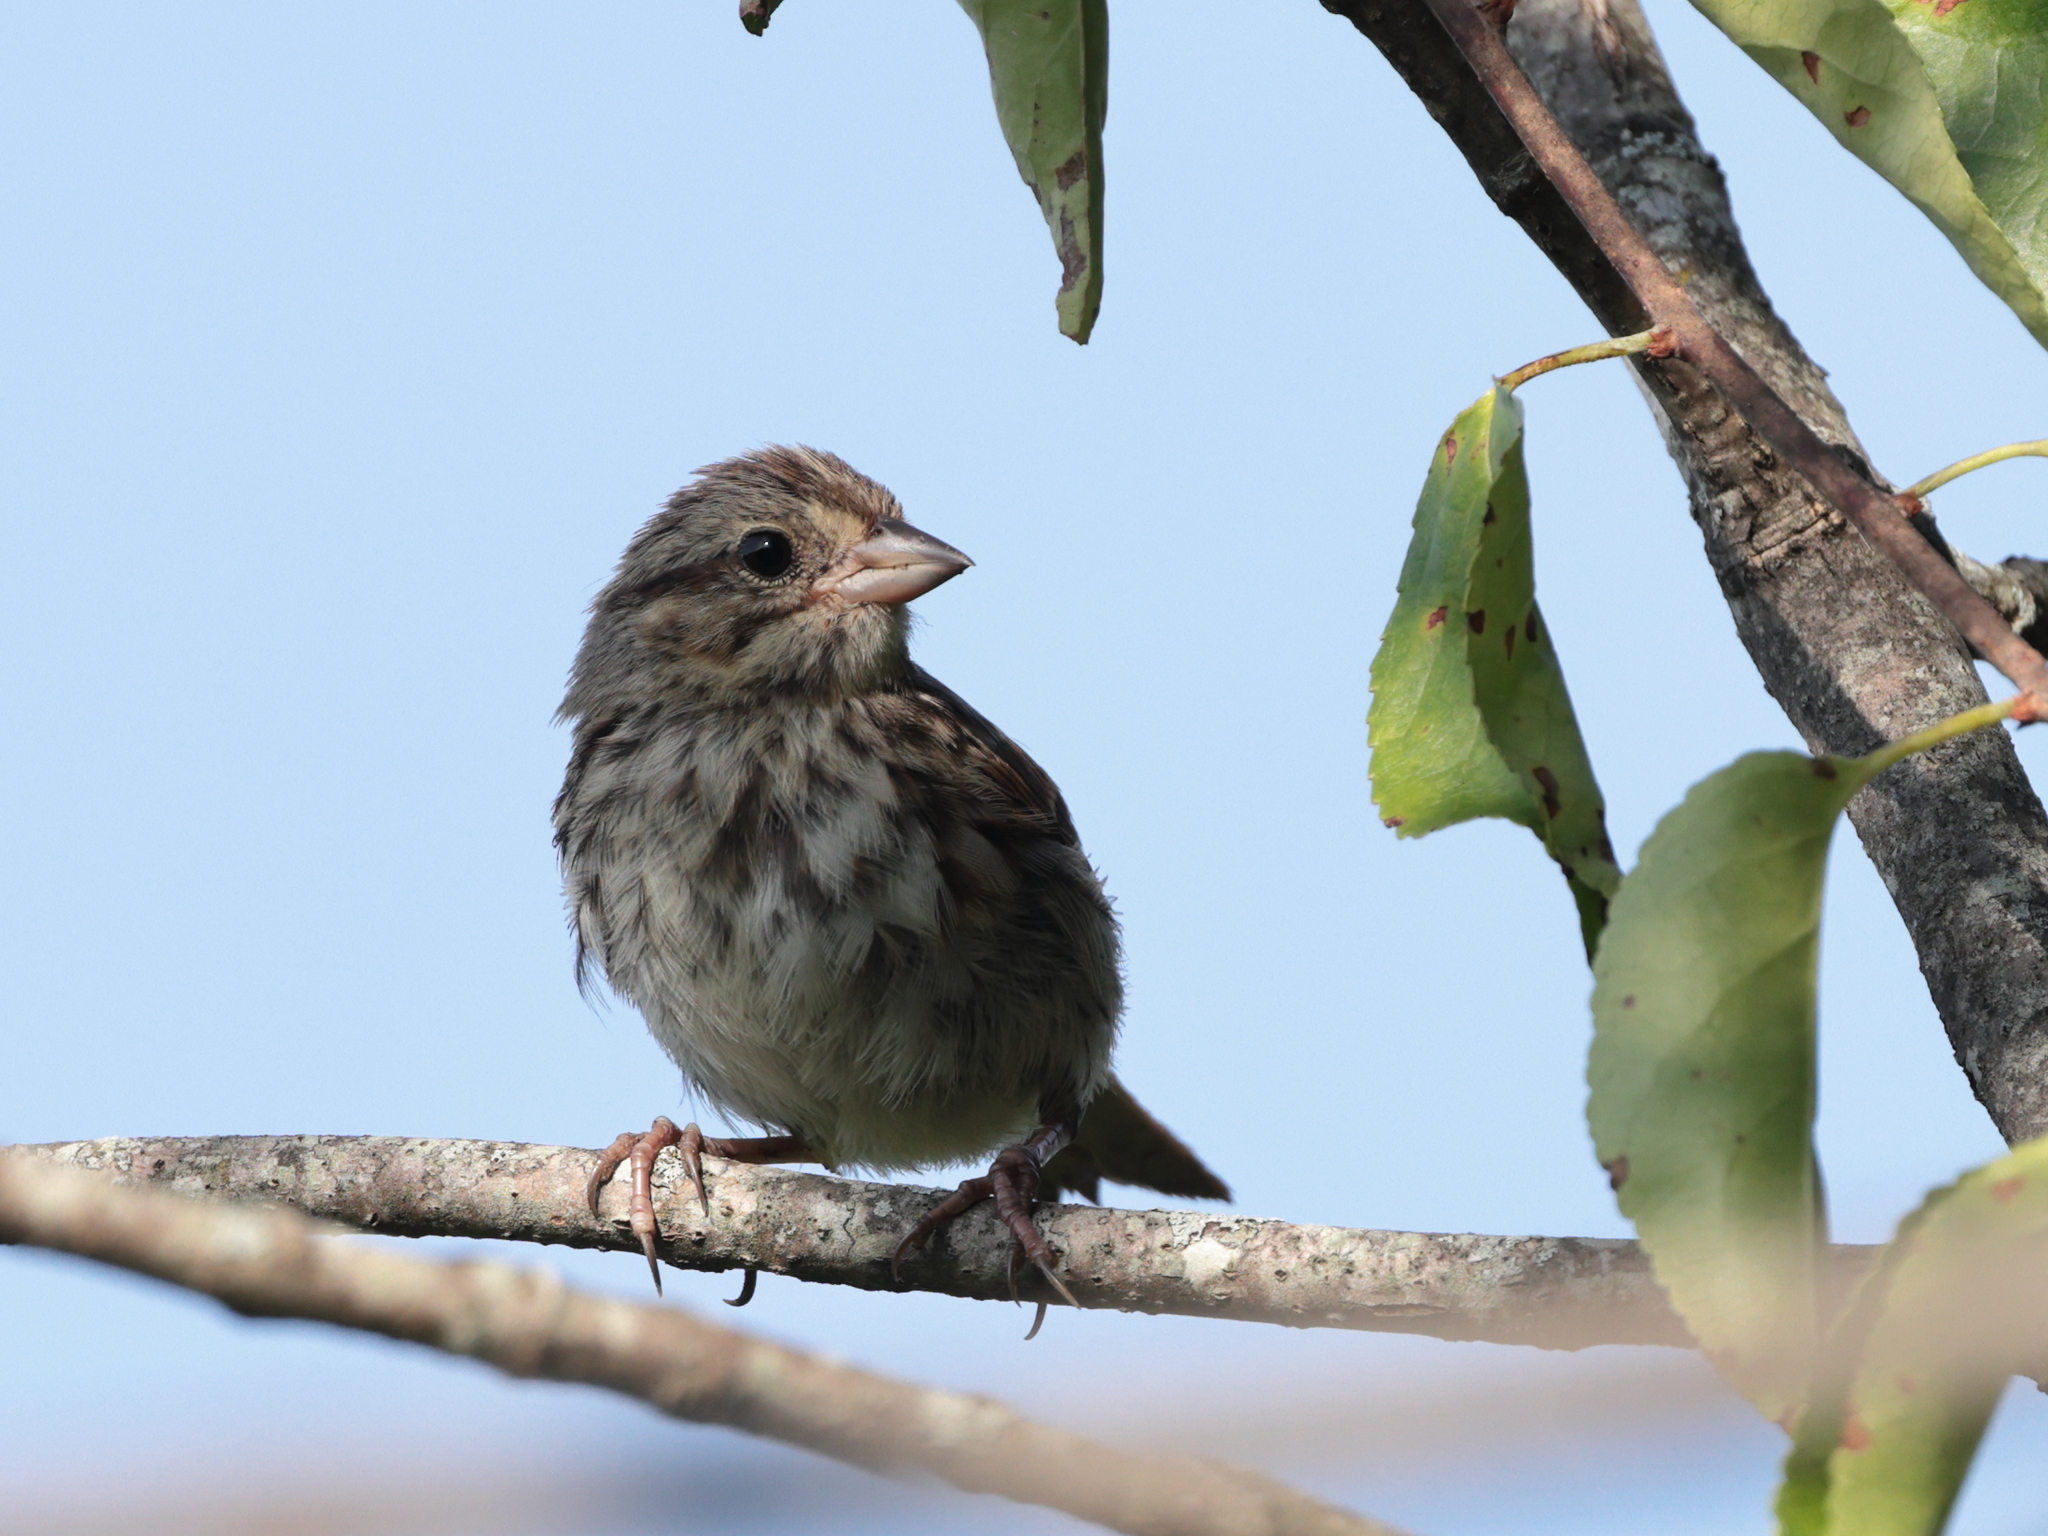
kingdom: Animalia
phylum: Chordata
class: Aves
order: Passeriformes
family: Passerellidae
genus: Melospiza
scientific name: Melospiza melodia
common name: Song sparrow
